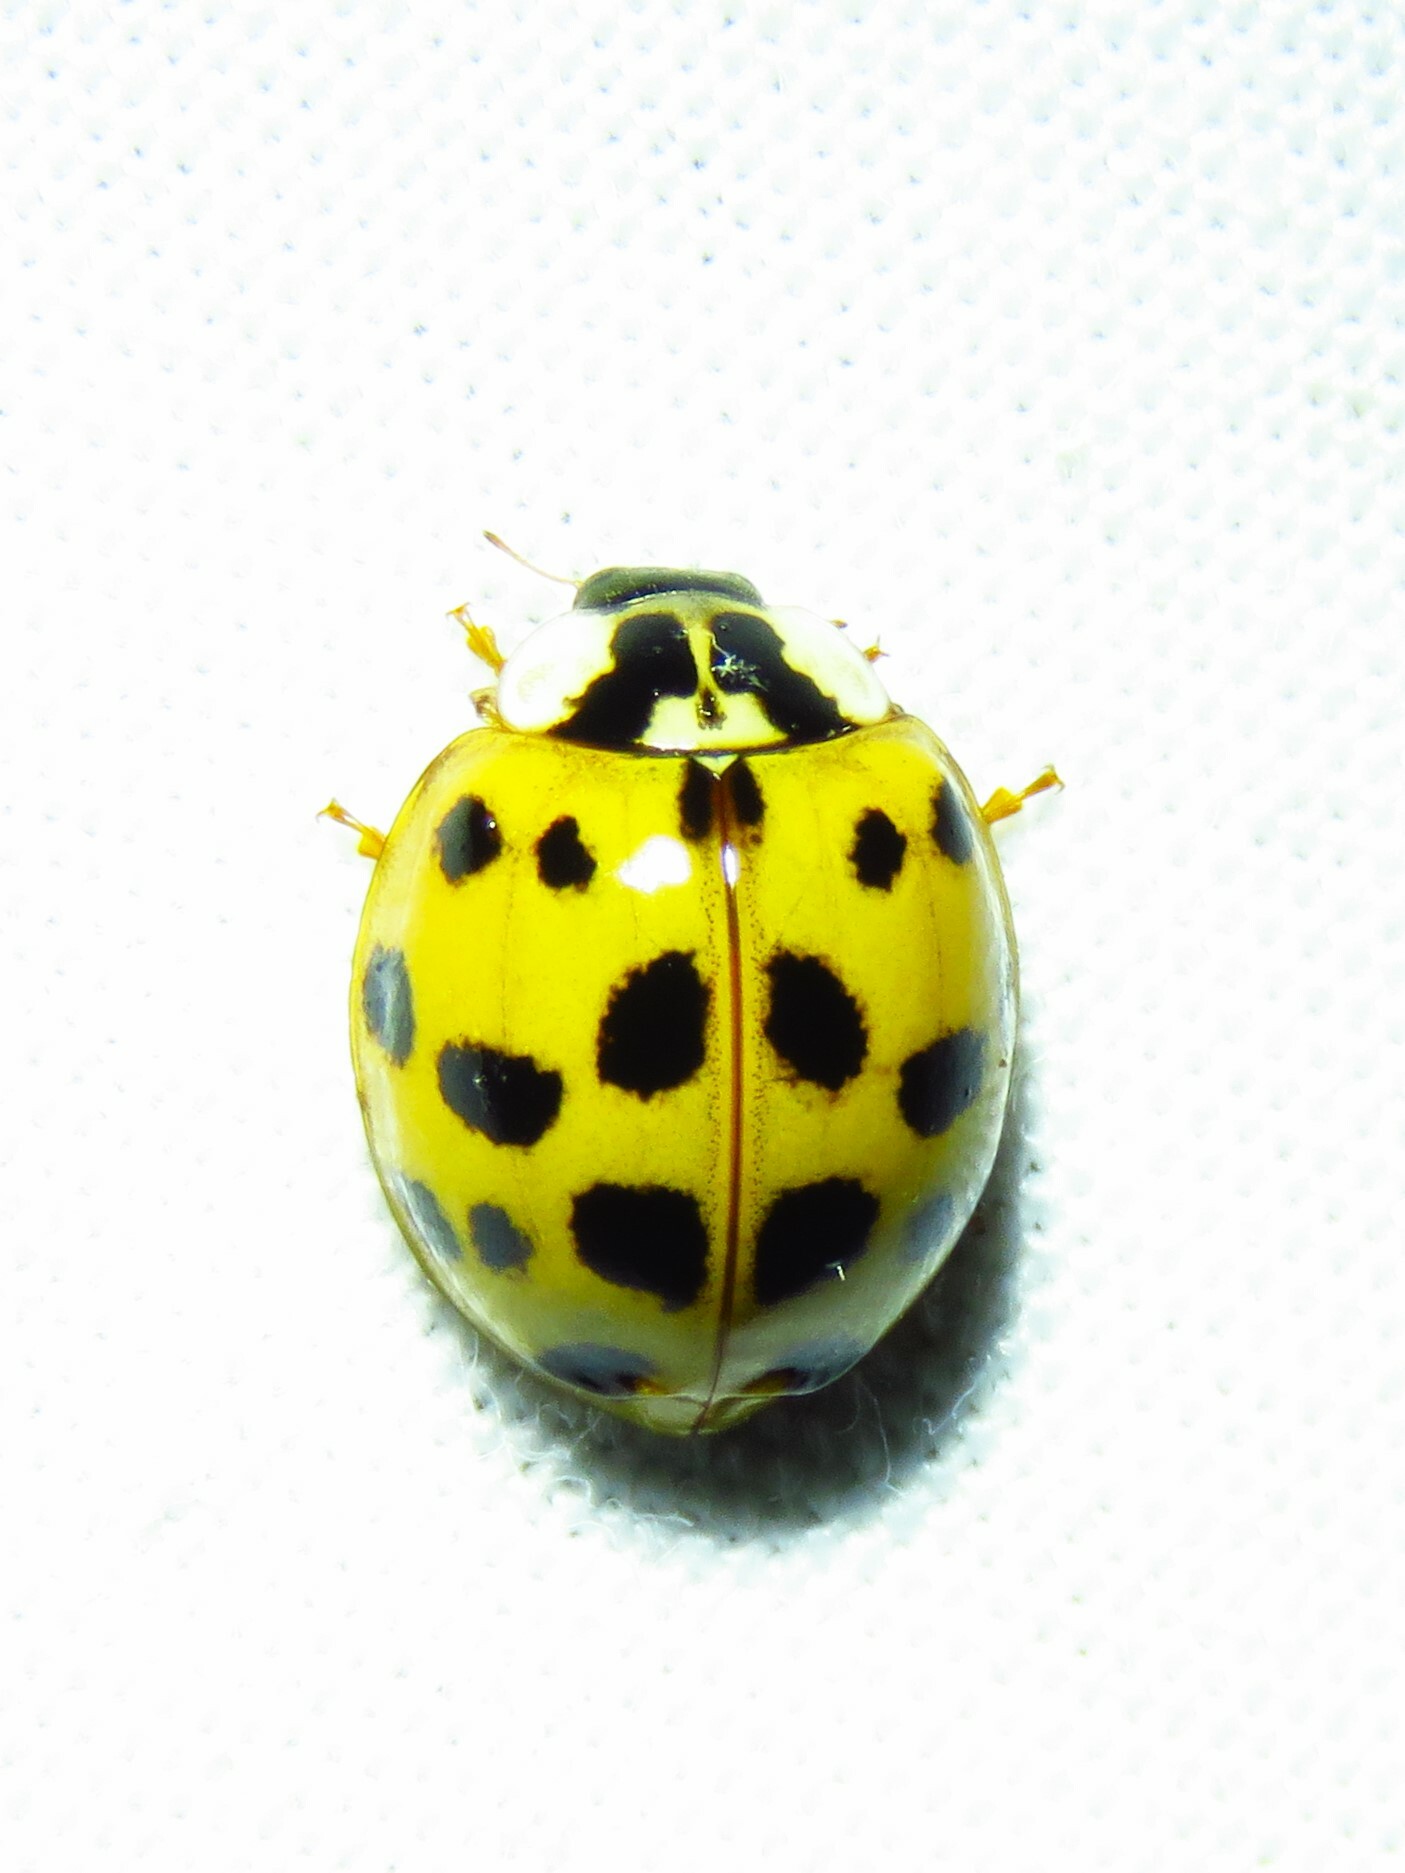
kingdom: Animalia
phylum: Arthropoda
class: Insecta
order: Coleoptera
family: Coccinellidae
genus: Harmonia
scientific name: Harmonia axyridis
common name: Harlequin ladybird
